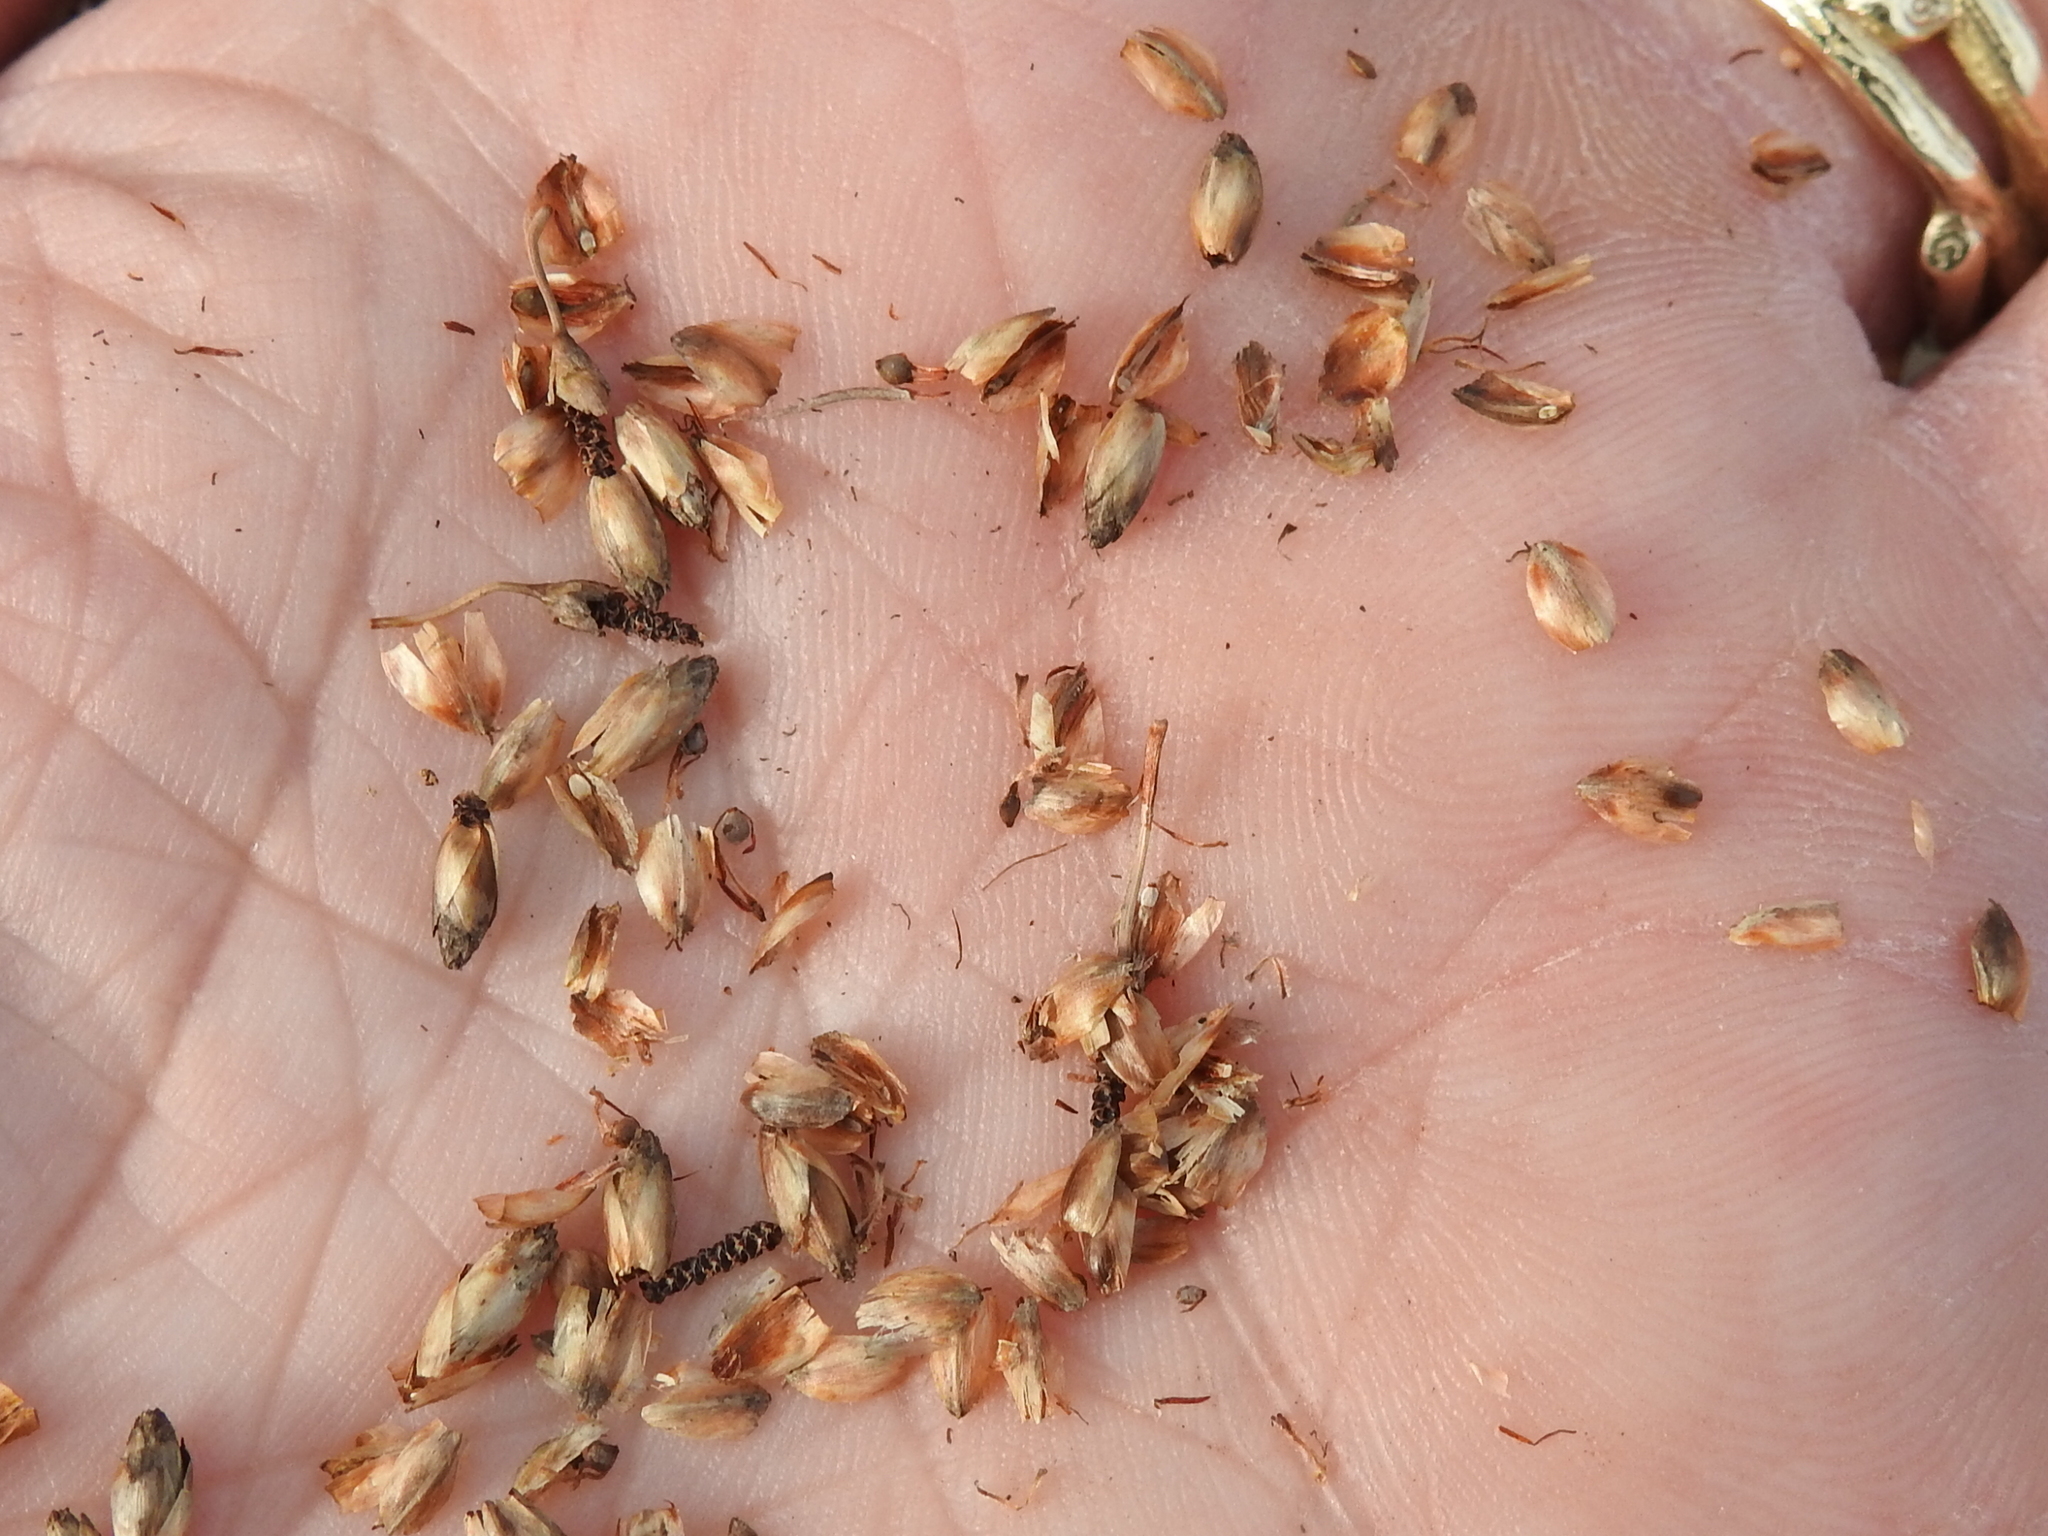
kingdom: Plantae
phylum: Tracheophyta
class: Liliopsida
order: Poales
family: Cyperaceae
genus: Fimbristylis
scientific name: Fimbristylis spadicea
